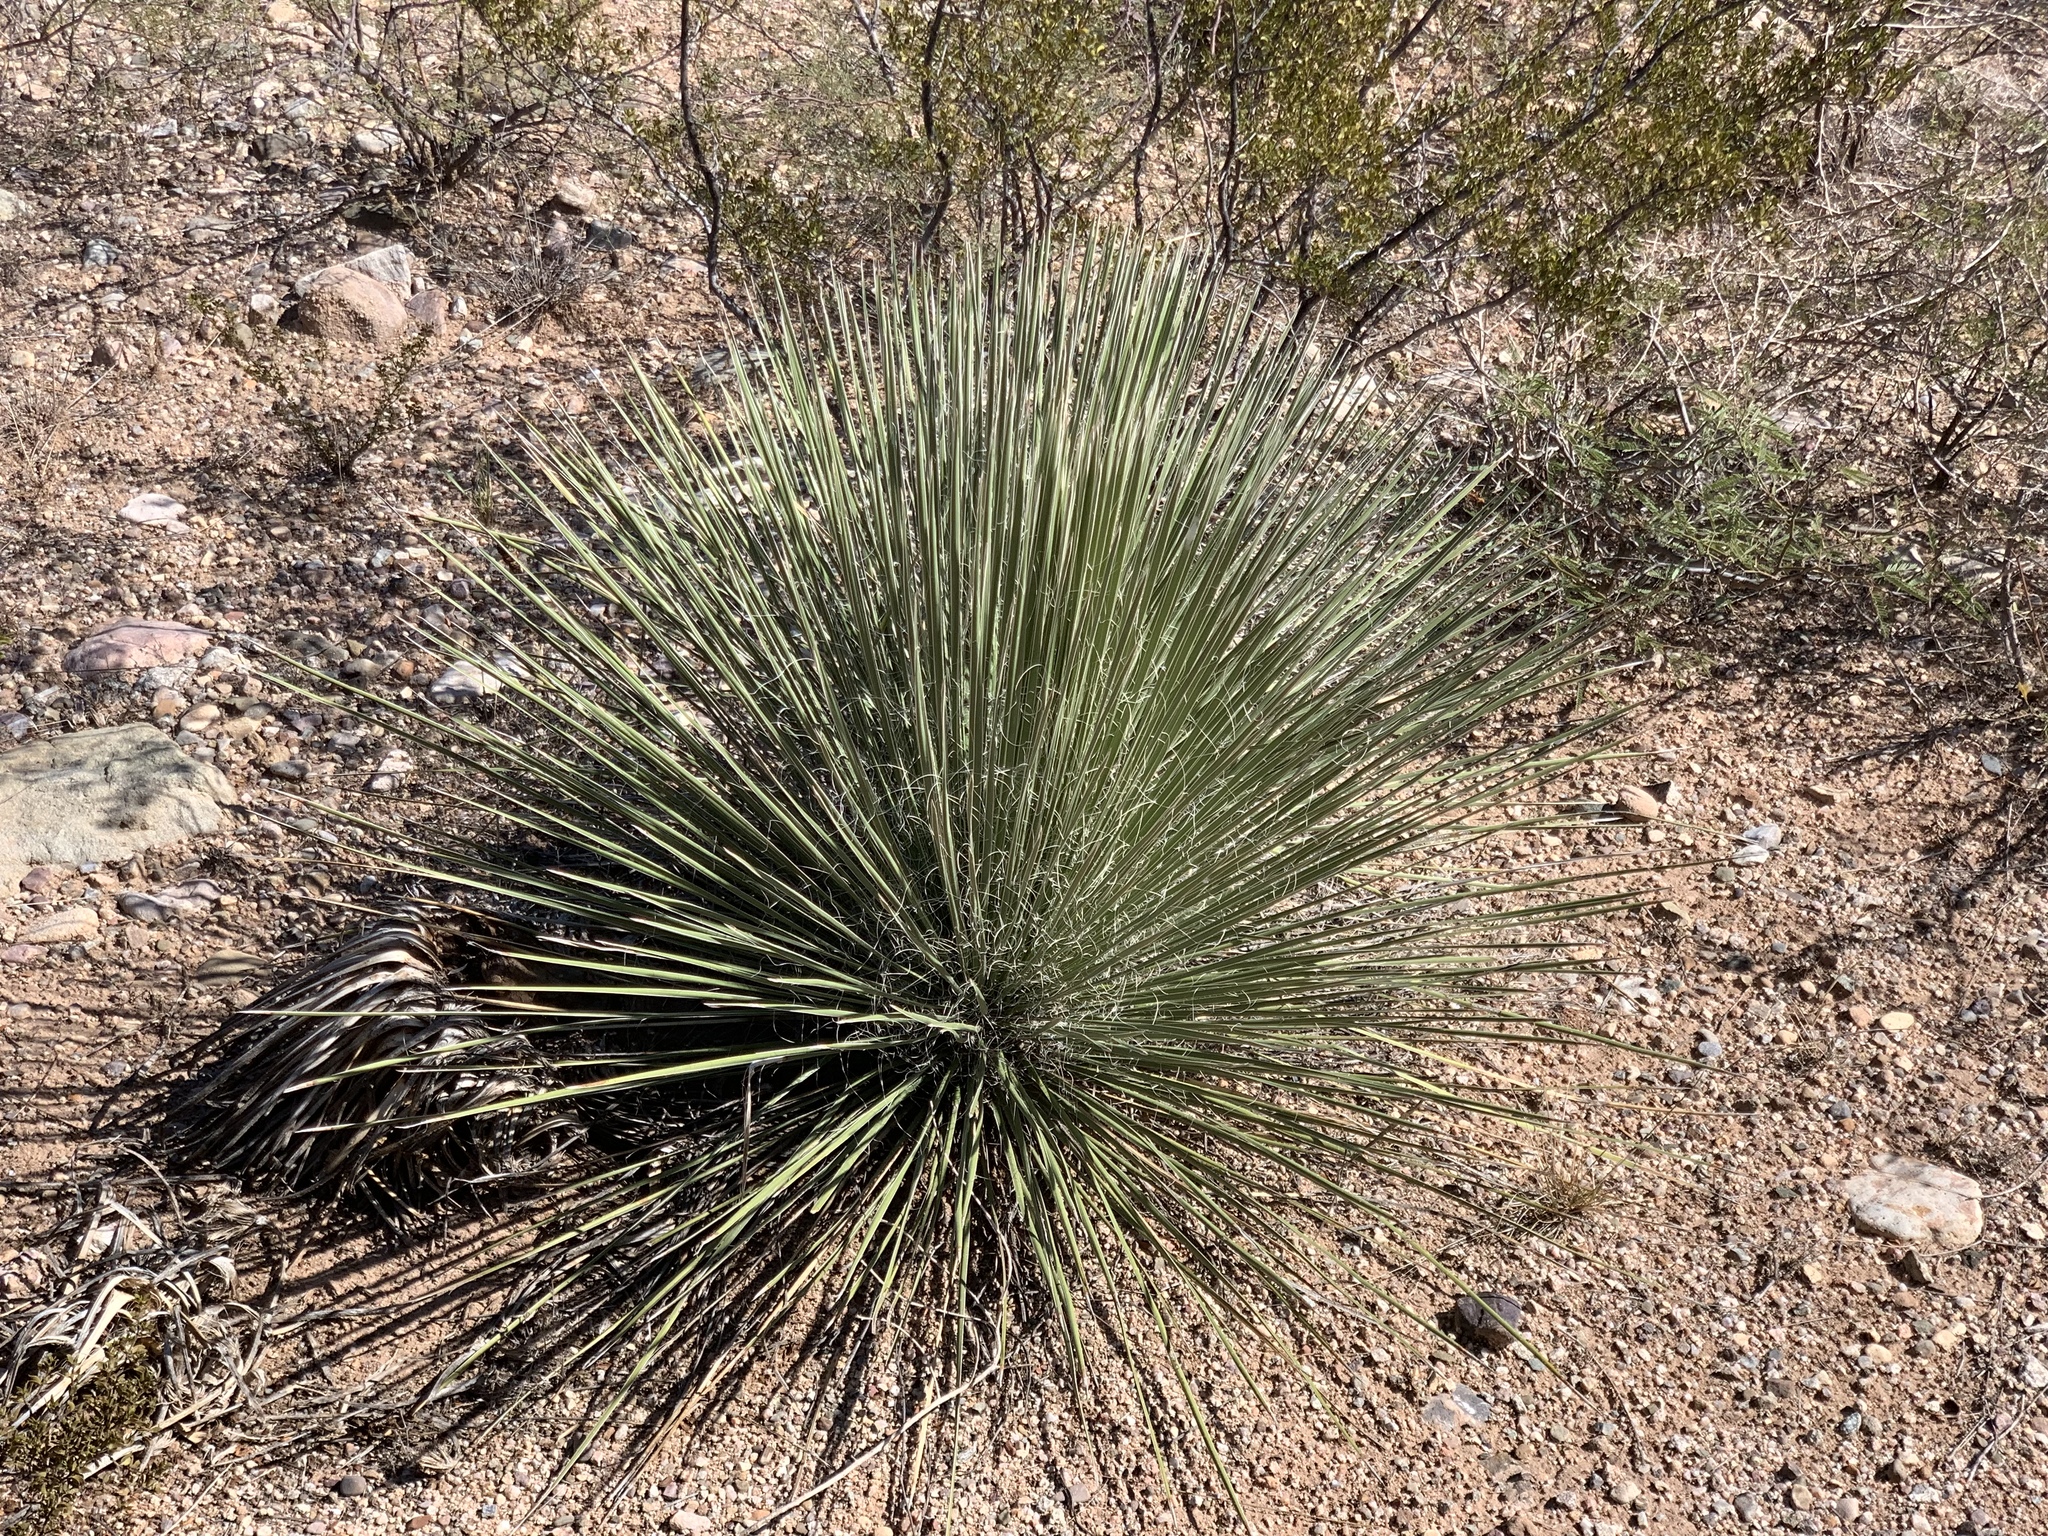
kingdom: Plantae
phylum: Tracheophyta
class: Liliopsida
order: Asparagales
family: Asparagaceae
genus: Yucca
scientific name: Yucca elata
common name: Palmella
